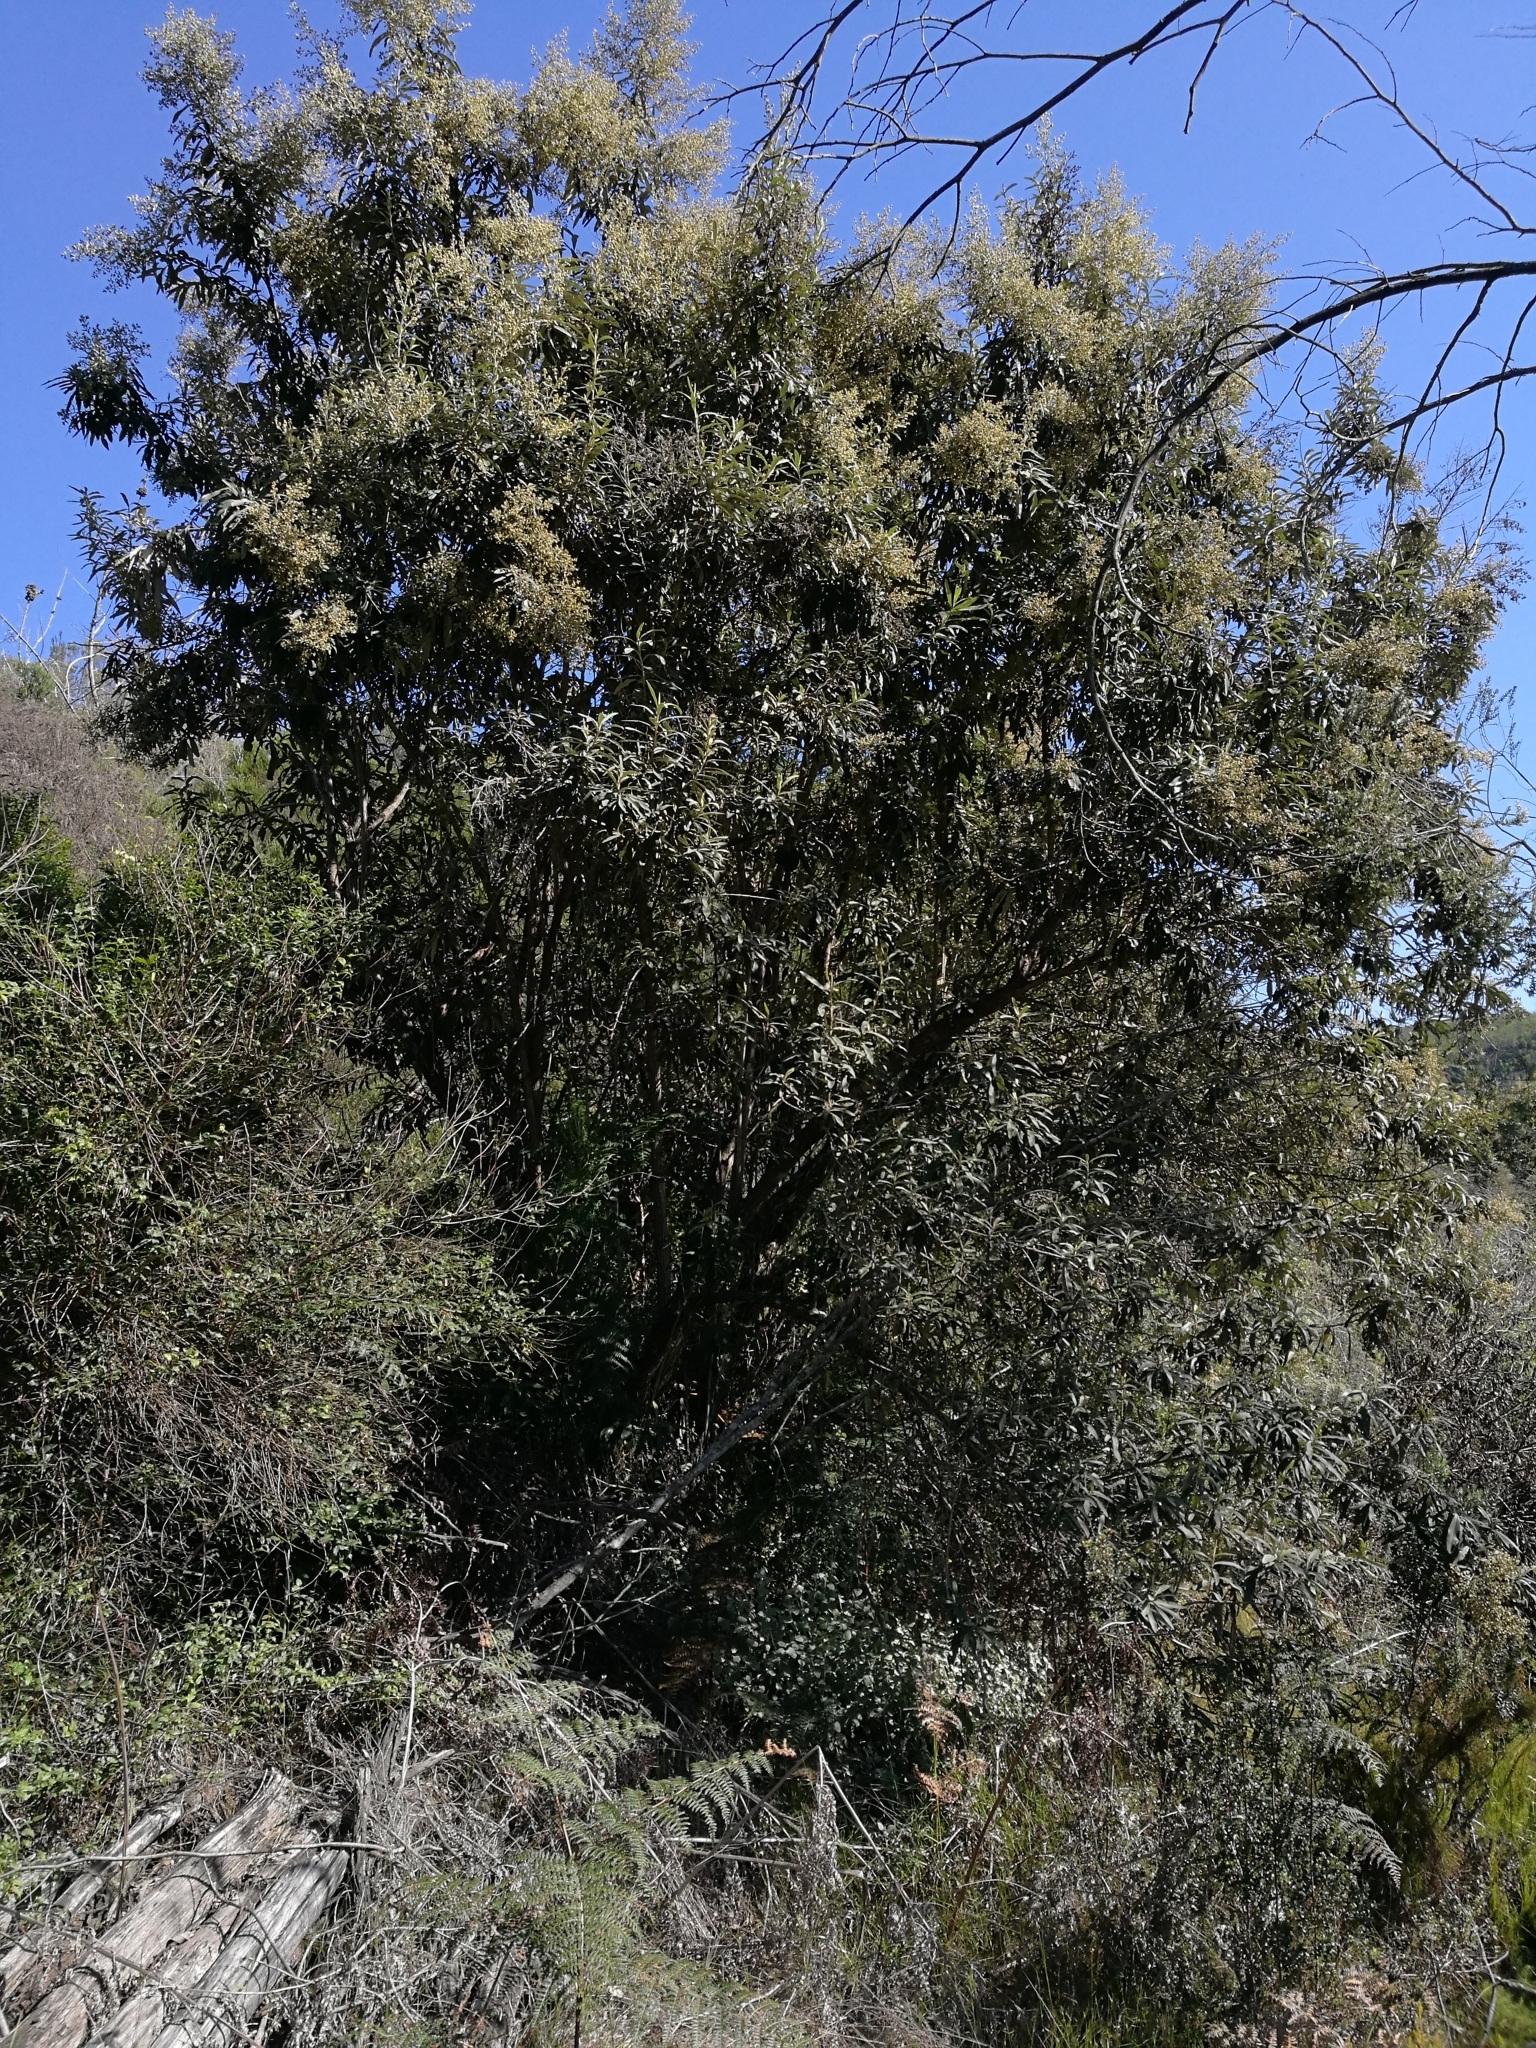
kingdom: Plantae
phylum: Tracheophyta
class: Magnoliopsida
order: Asterales
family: Asteraceae
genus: Tarchonanthus
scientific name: Tarchonanthus littoralis
